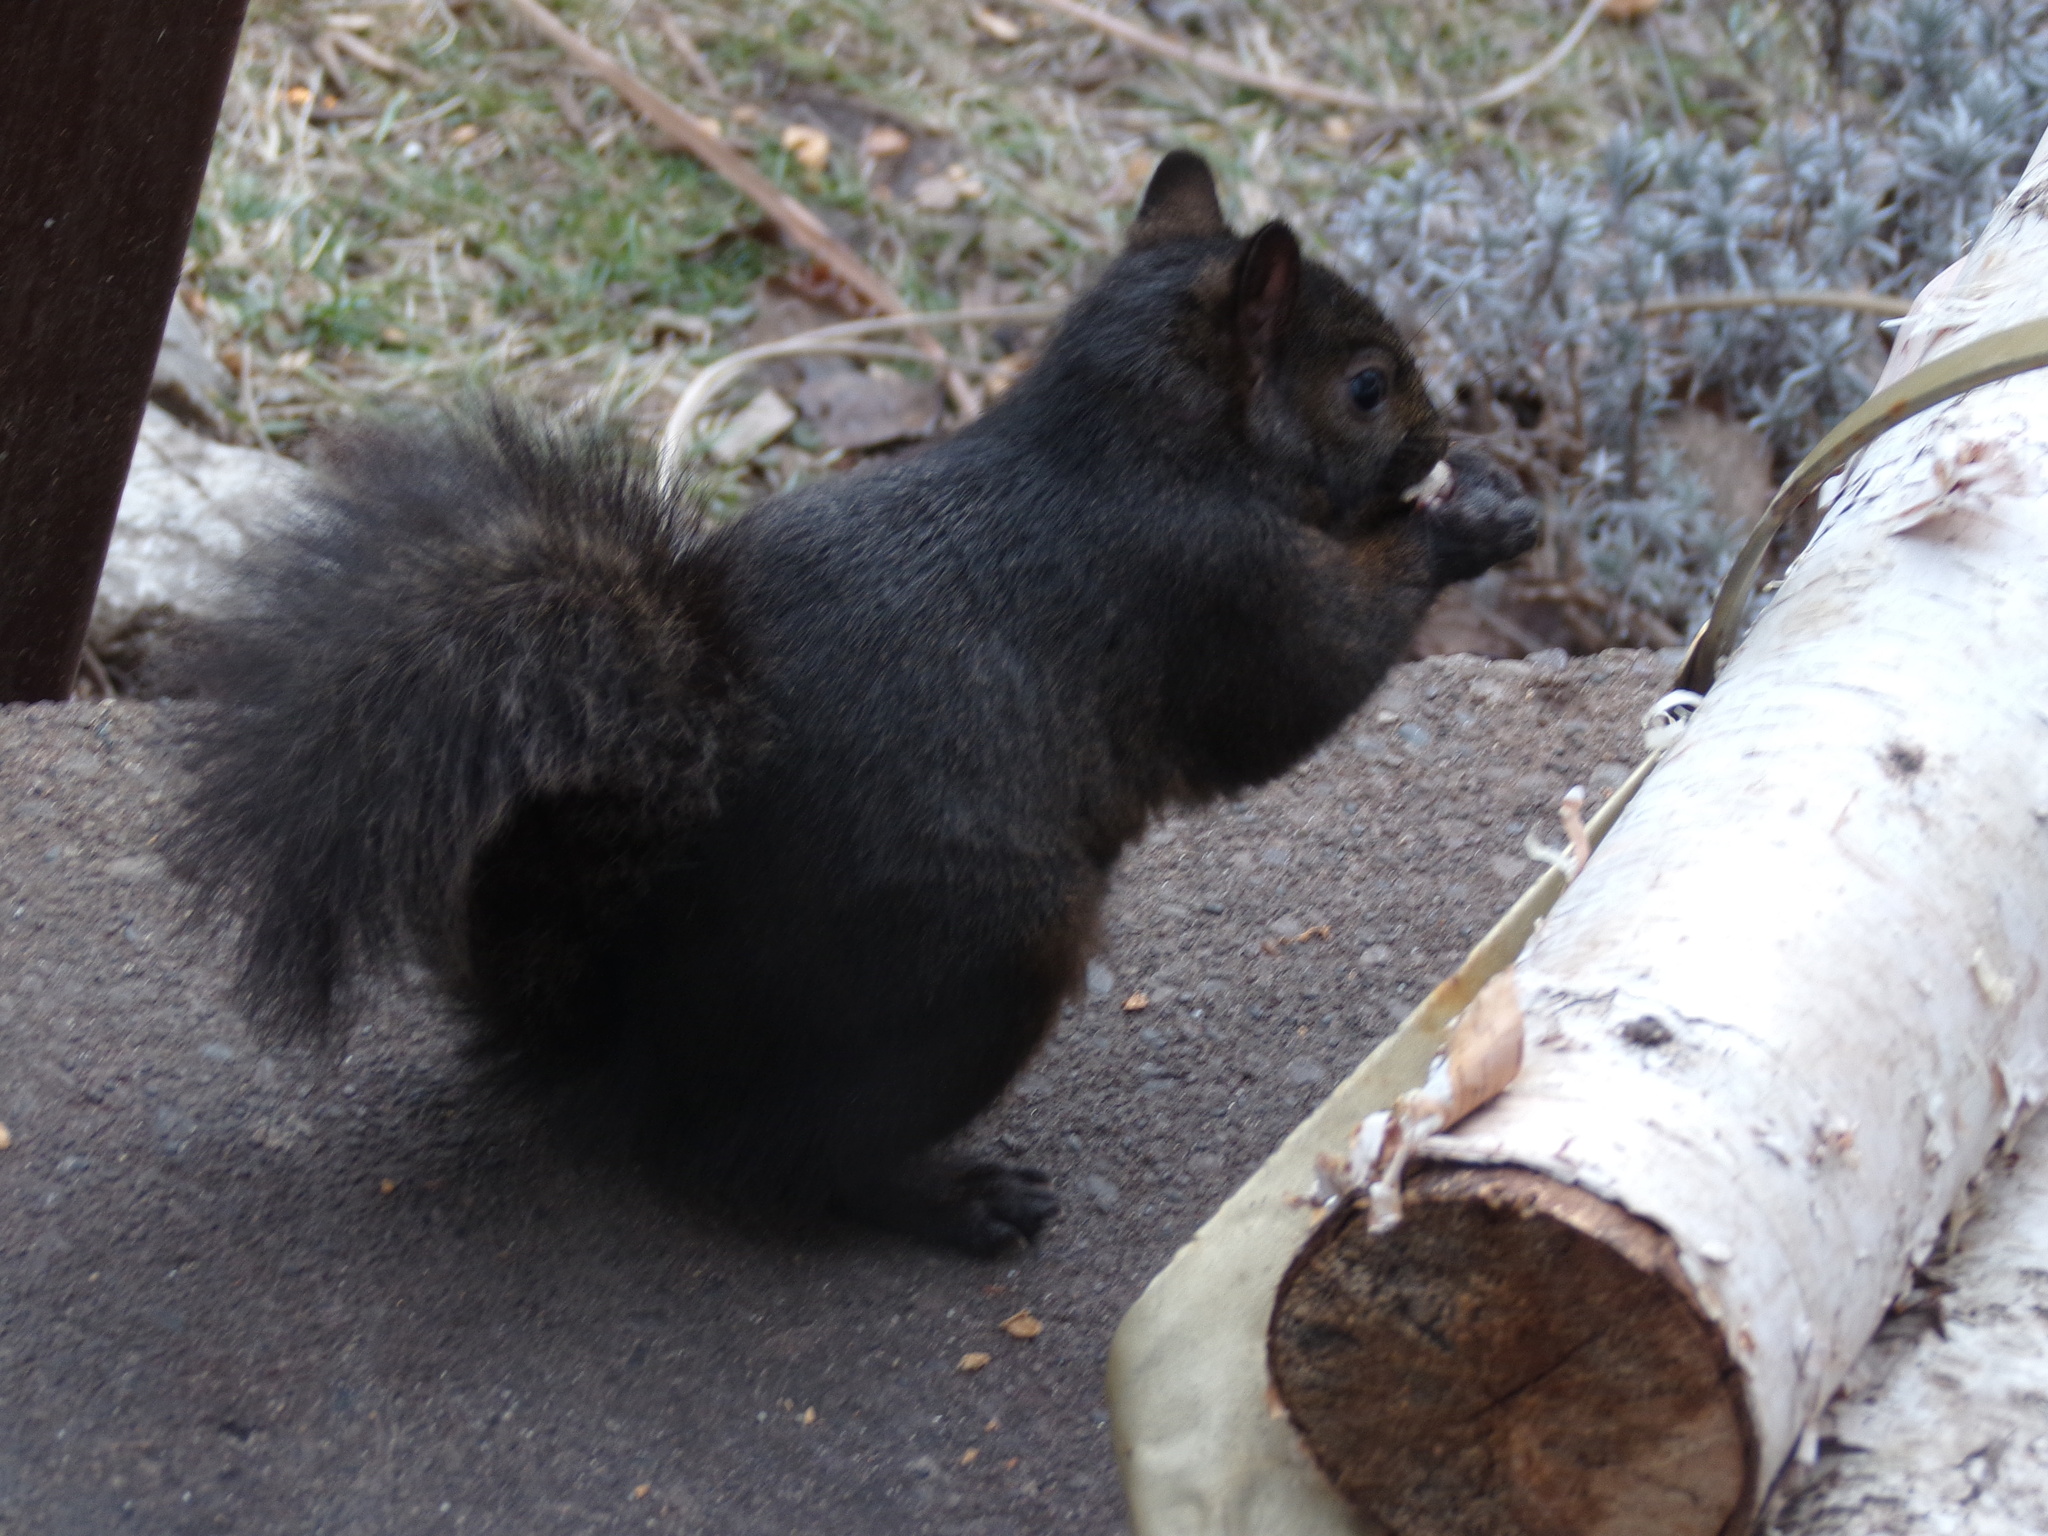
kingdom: Animalia
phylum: Chordata
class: Mammalia
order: Rodentia
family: Sciuridae
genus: Sciurus
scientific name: Sciurus carolinensis
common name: Eastern gray squirrel
